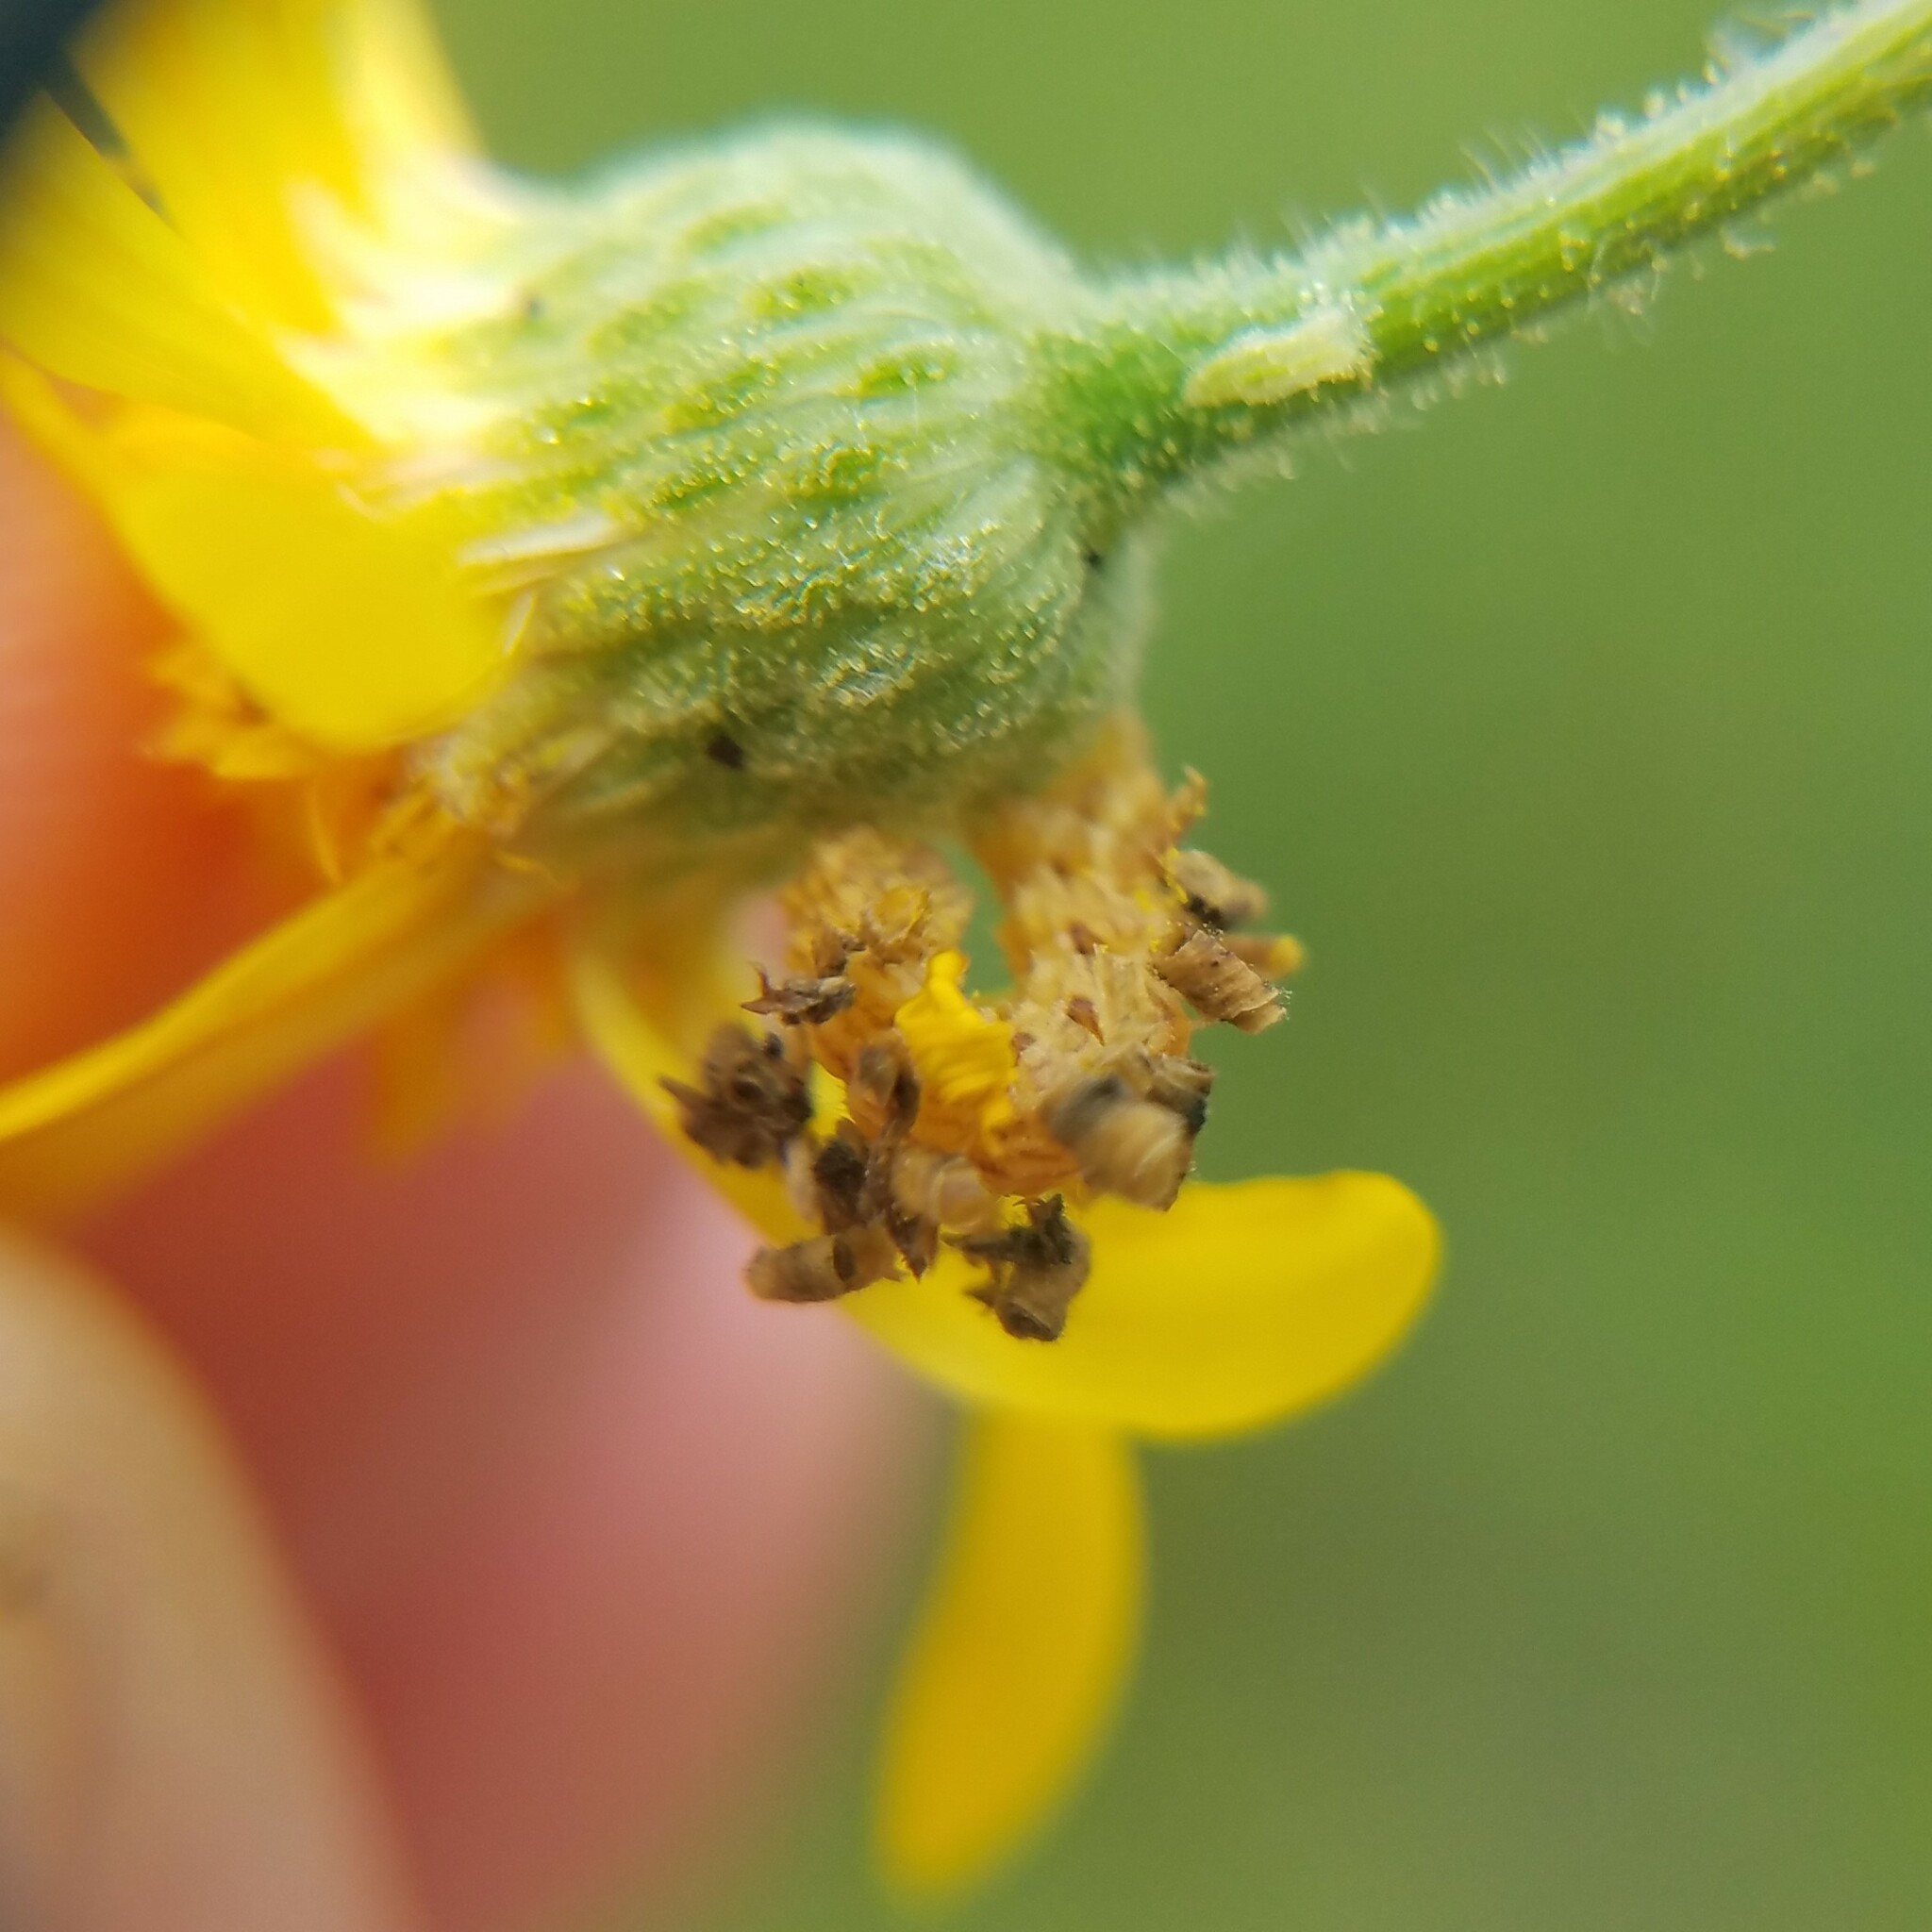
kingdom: Animalia
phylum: Arthropoda
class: Insecta
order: Lepidoptera
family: Geometridae
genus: Synchlora
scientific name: Synchlora
